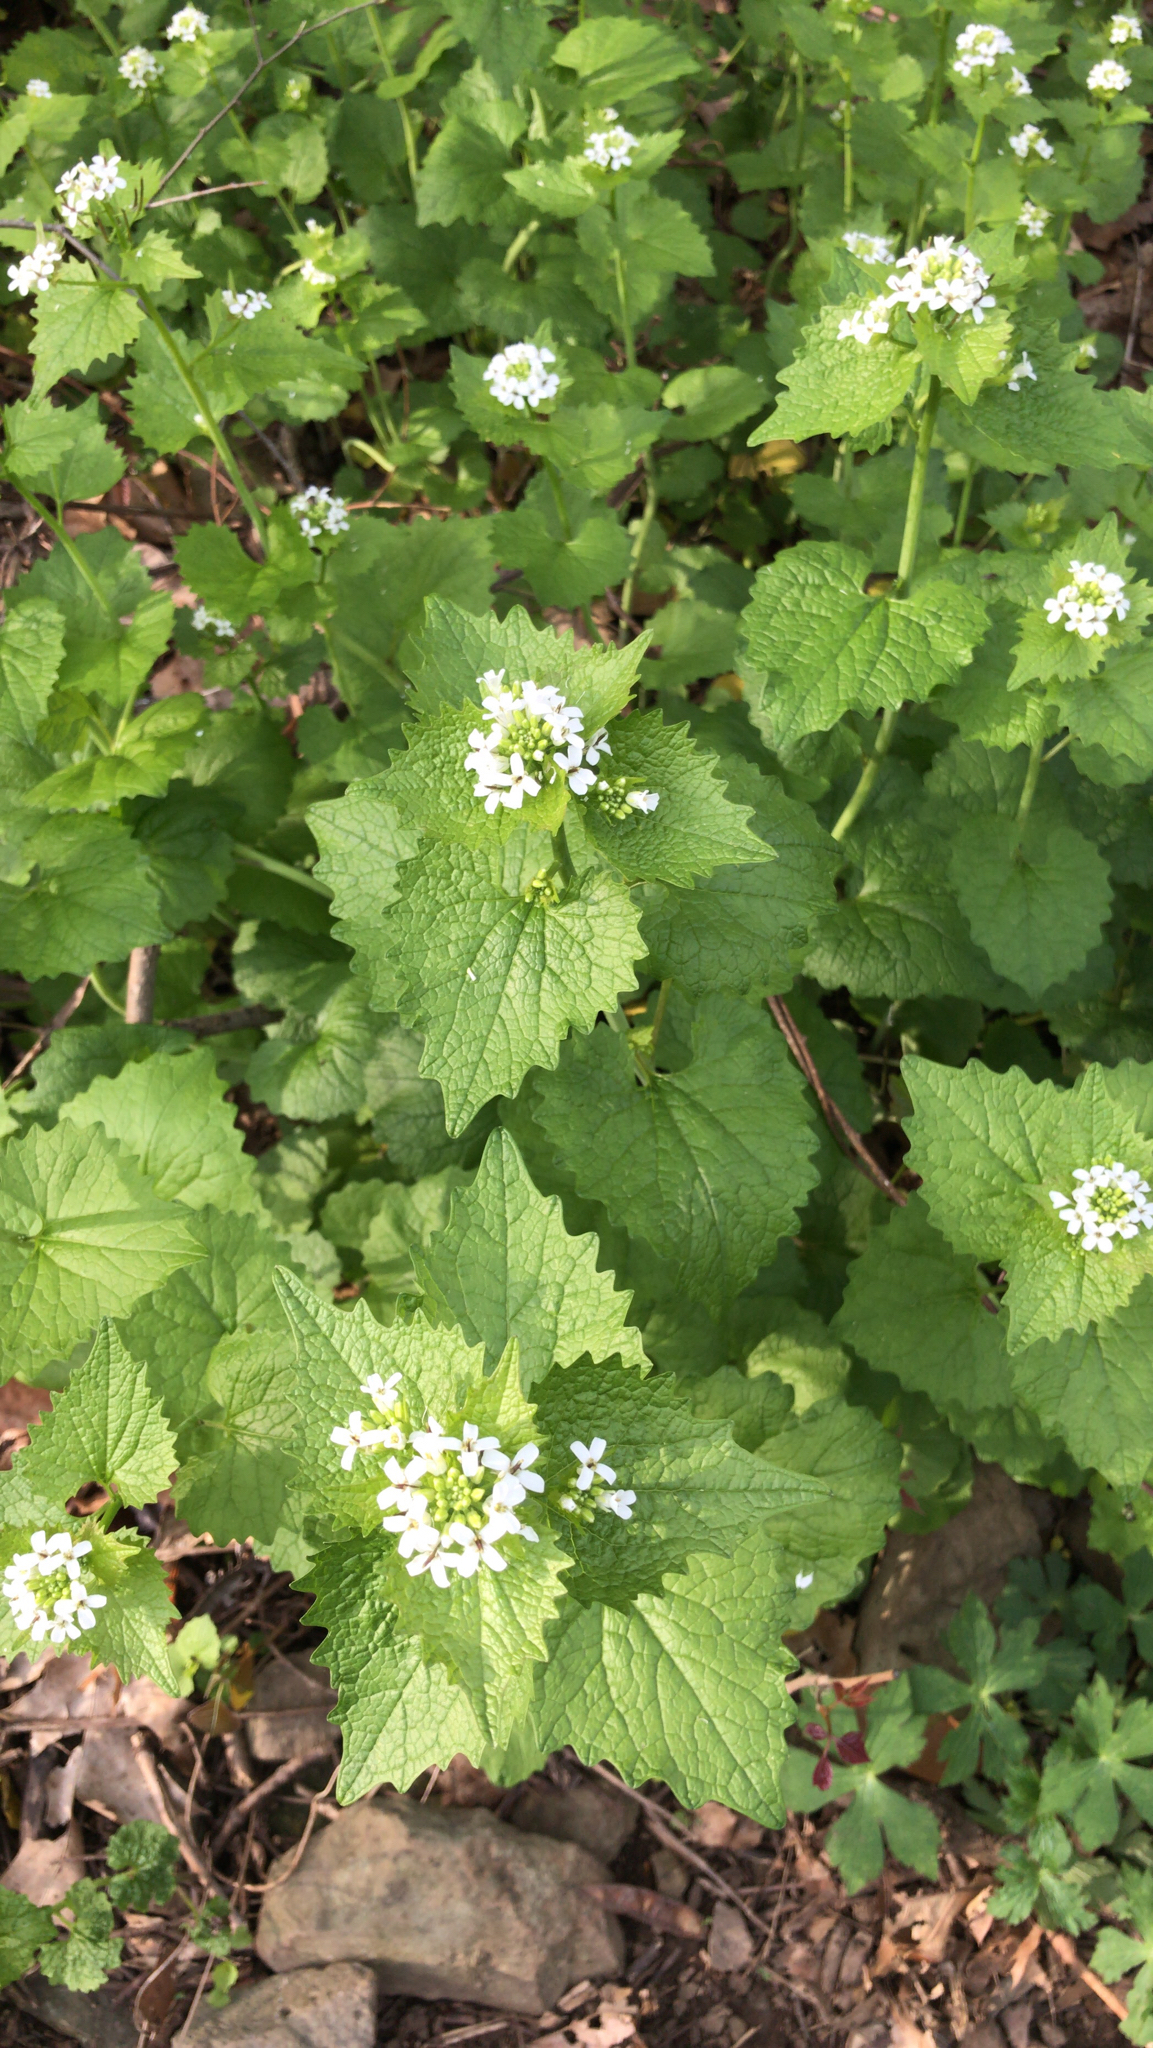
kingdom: Plantae
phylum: Tracheophyta
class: Magnoliopsida
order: Brassicales
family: Brassicaceae
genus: Alliaria
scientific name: Alliaria petiolata
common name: Garlic mustard
